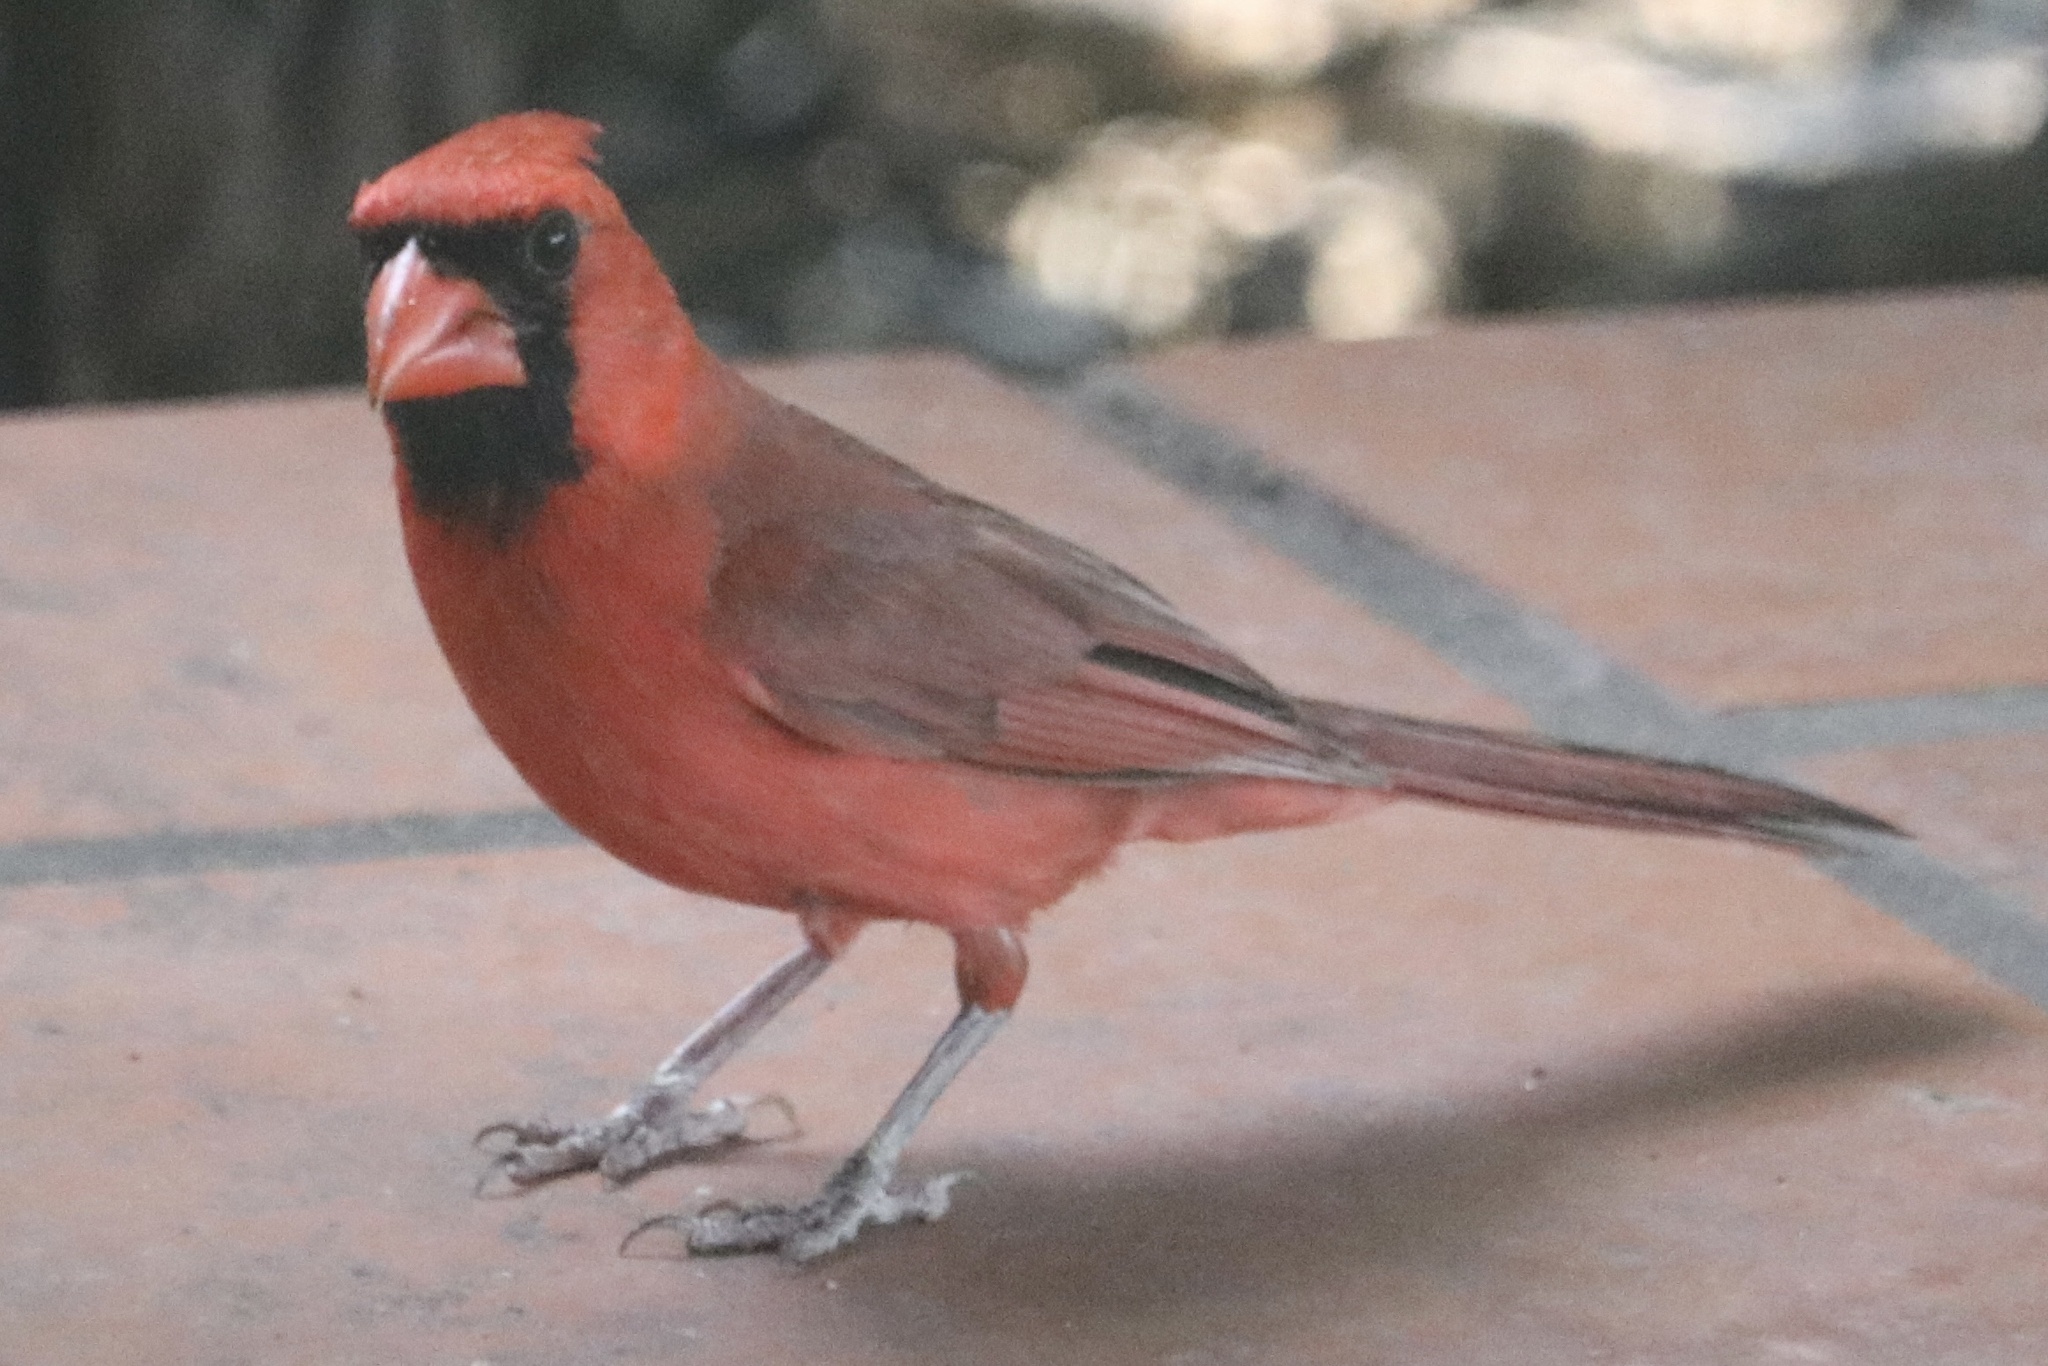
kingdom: Animalia
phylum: Chordata
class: Aves
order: Passeriformes
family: Cardinalidae
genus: Cardinalis
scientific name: Cardinalis cardinalis
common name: Northern cardinal
